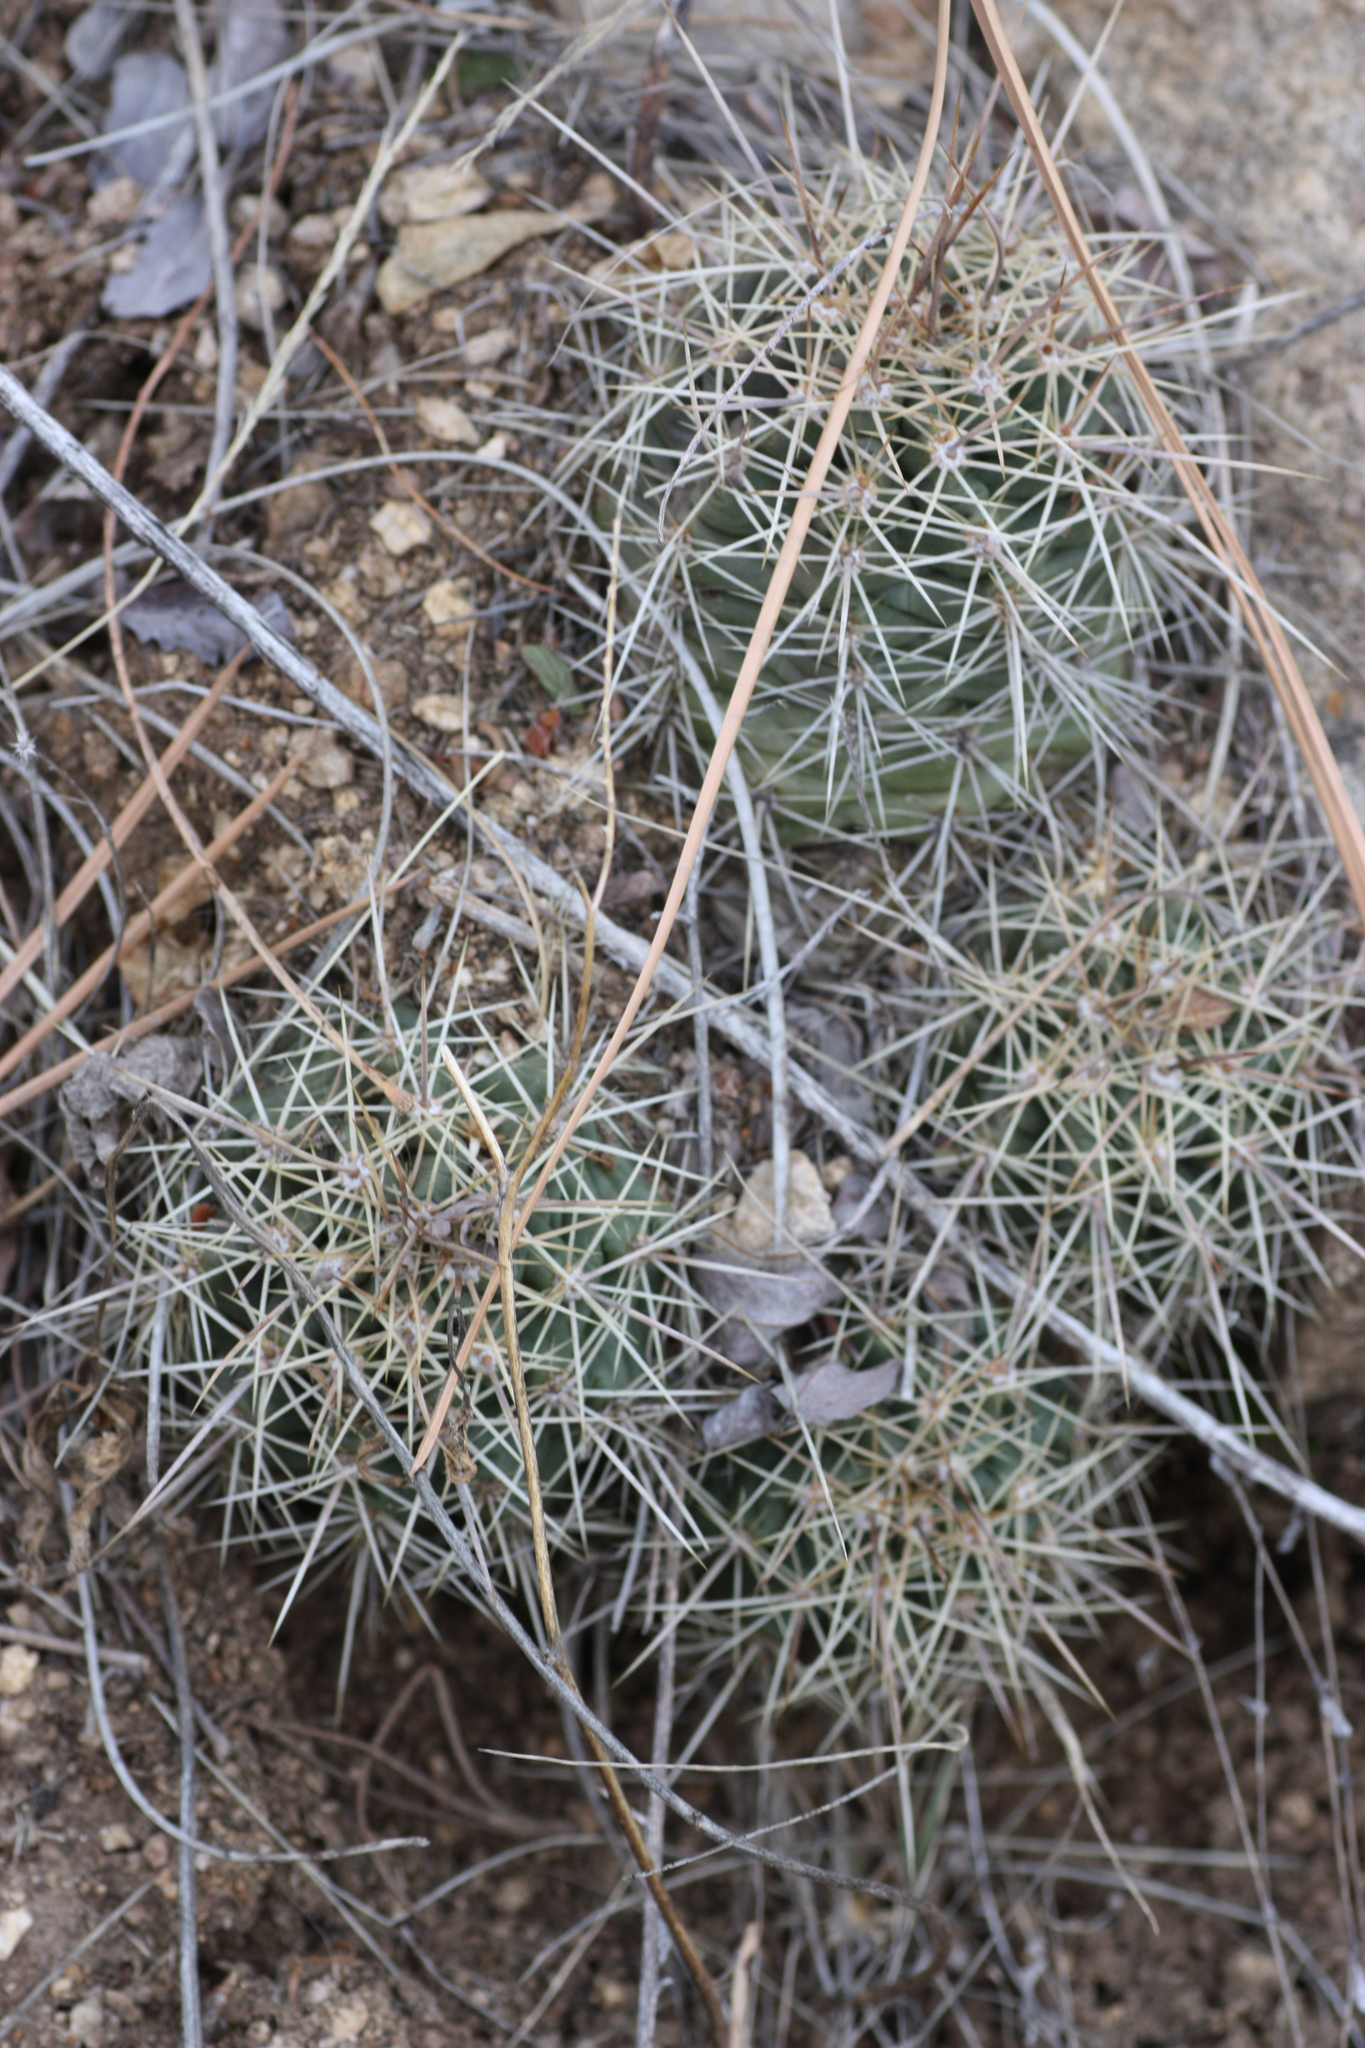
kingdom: Plantae
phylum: Tracheophyta
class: Magnoliopsida
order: Caryophyllales
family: Cactaceae
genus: Echinocereus
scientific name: Echinocereus coccineus
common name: Scarlet hedgehog cactus
